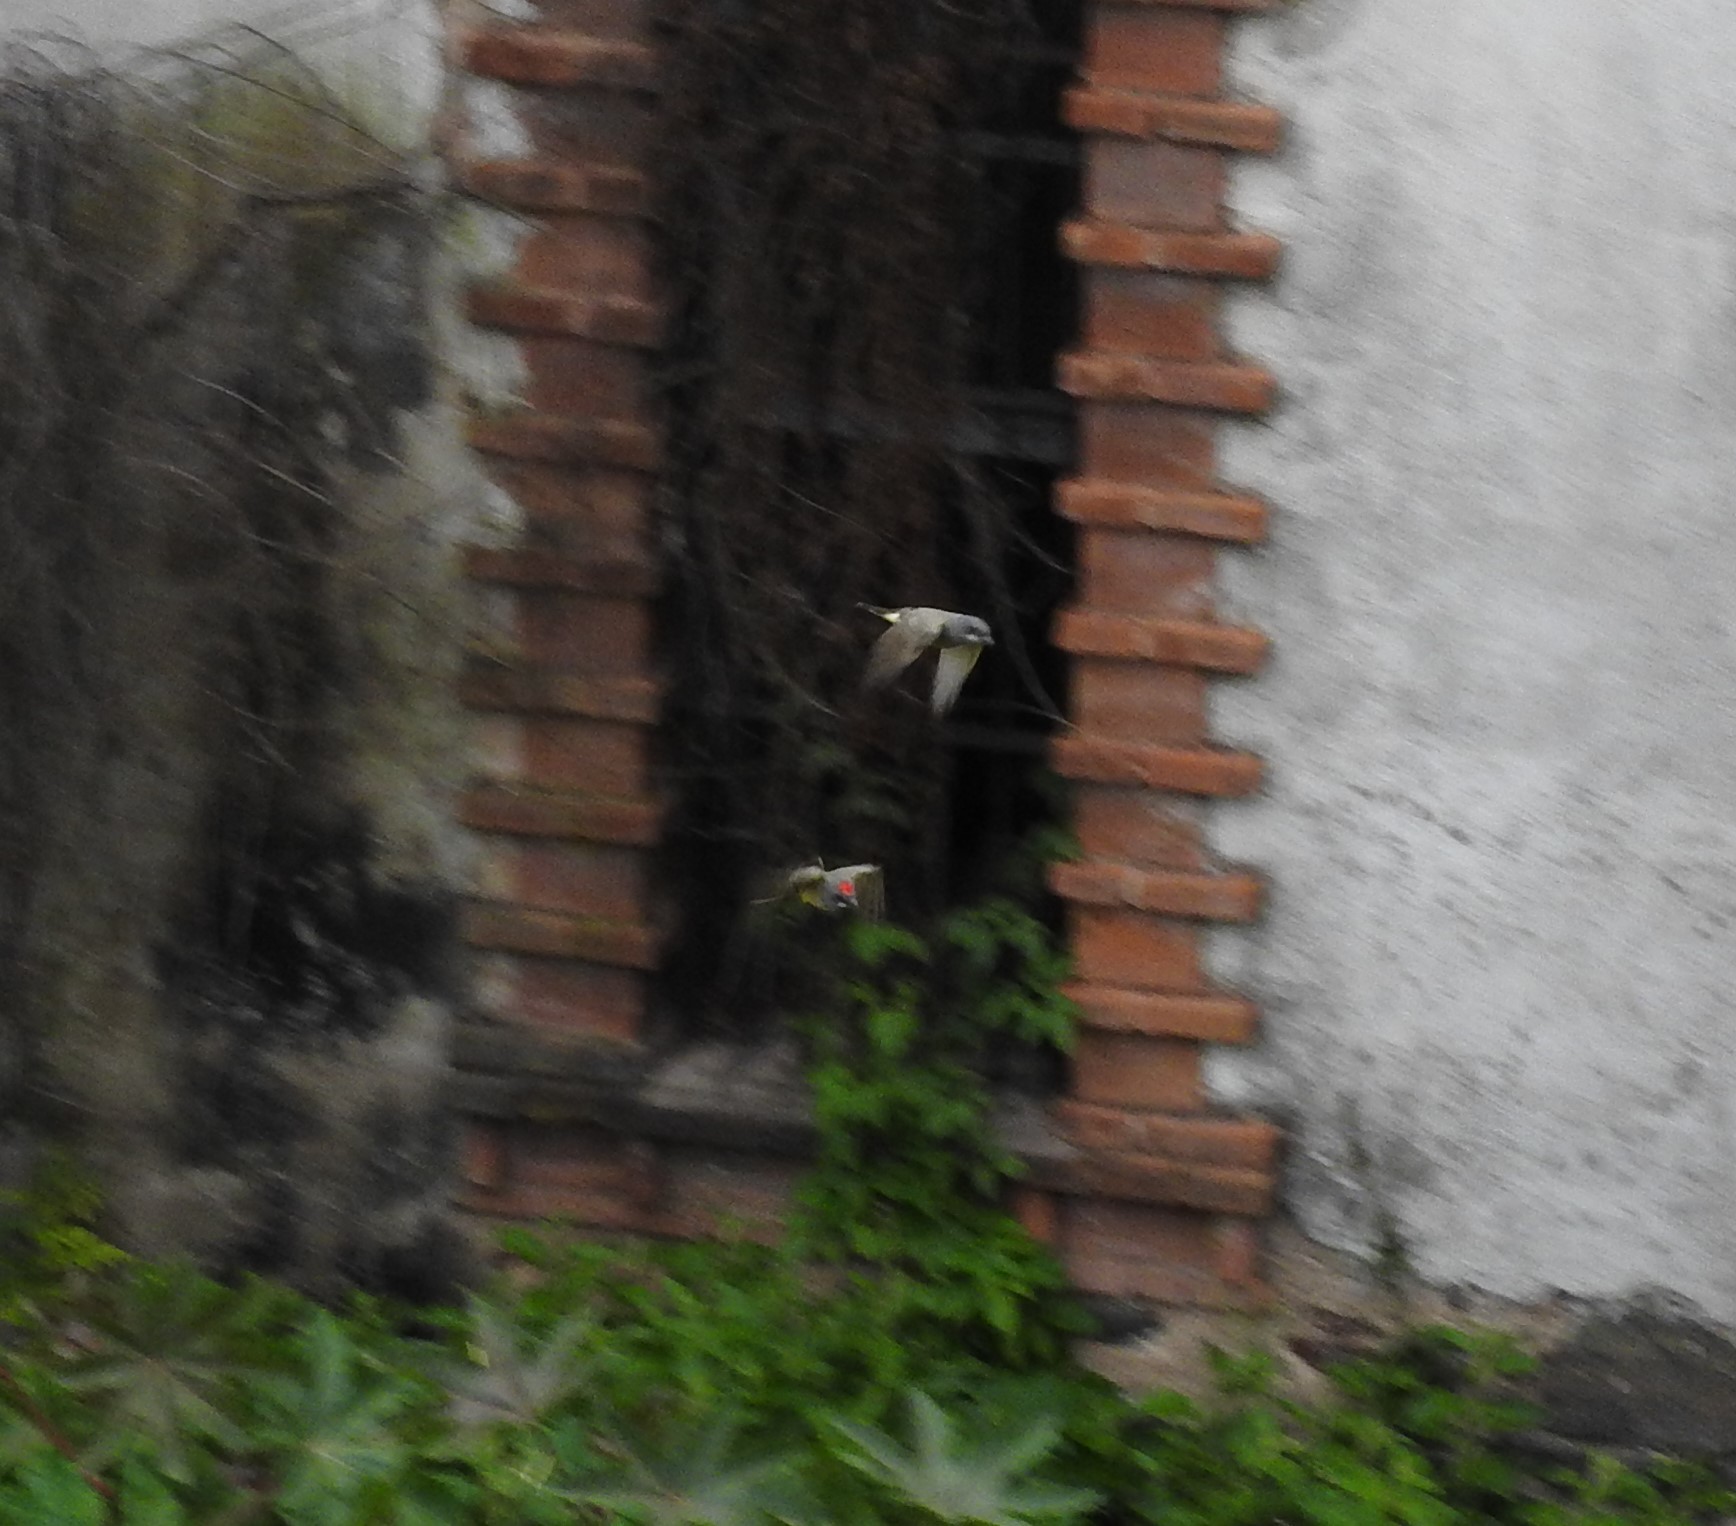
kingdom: Animalia
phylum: Chordata
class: Aves
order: Passeriformes
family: Tyrannidae
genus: Tyrannus
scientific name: Tyrannus vociferans
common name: Cassin's kingbird
